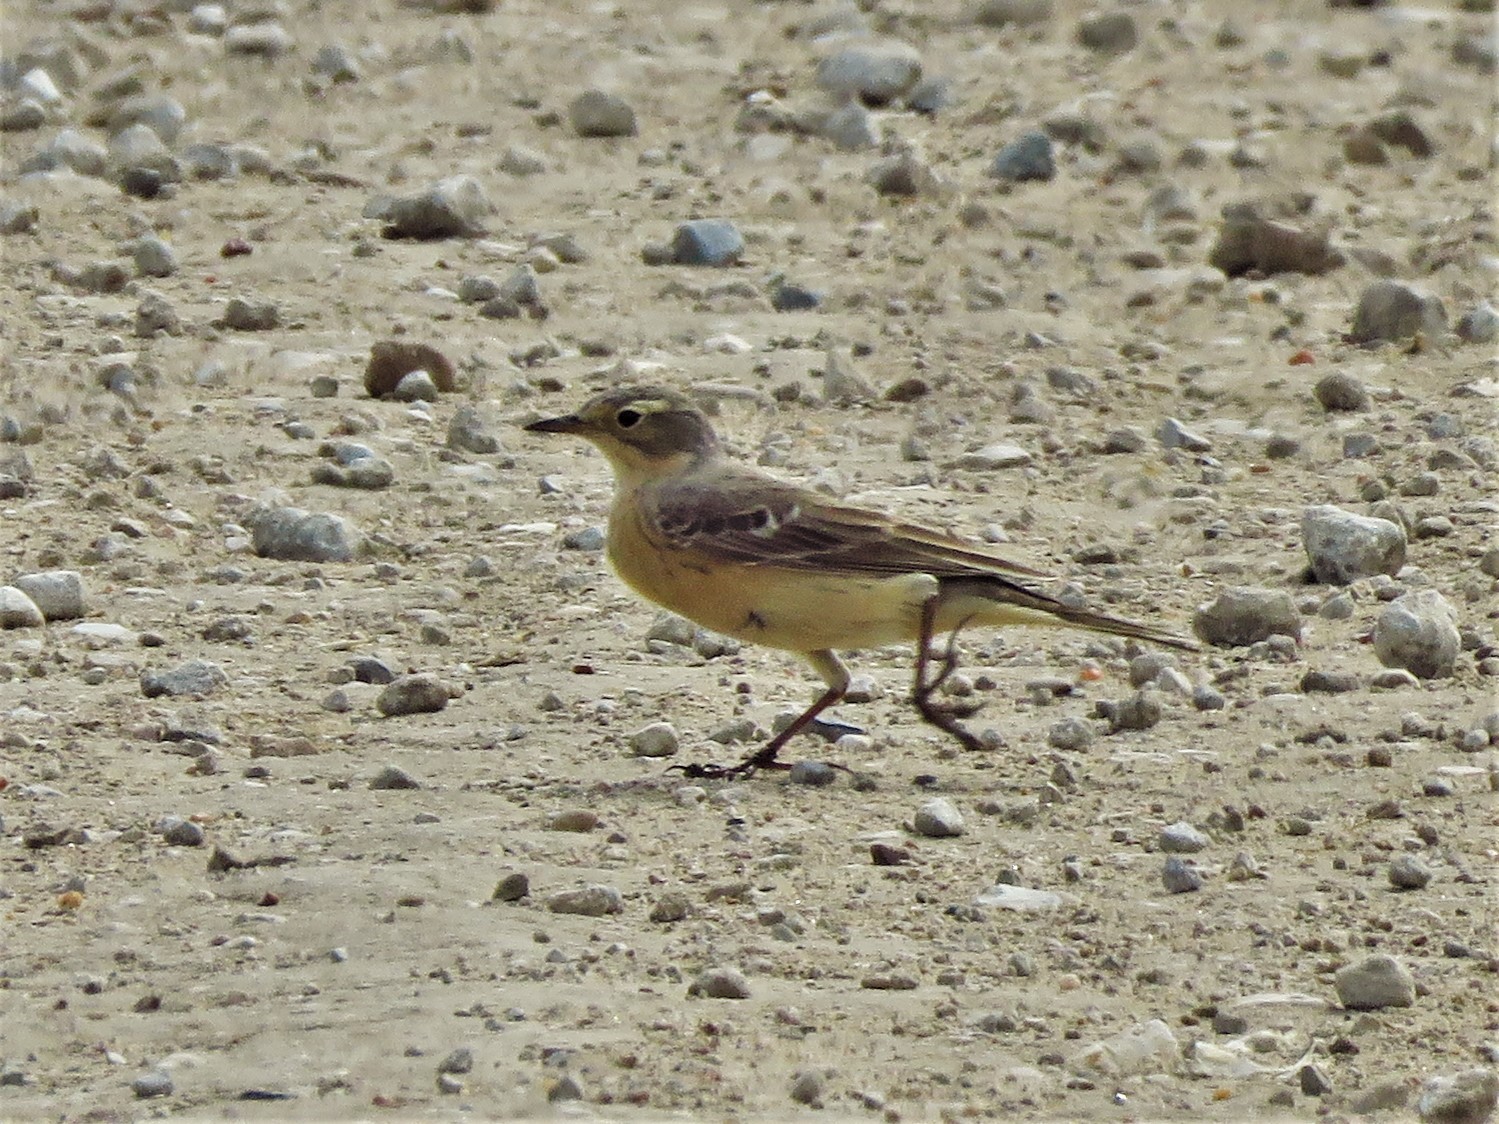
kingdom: Animalia
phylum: Chordata
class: Aves
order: Passeriformes
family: Motacillidae
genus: Anthus
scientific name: Anthus rubescens
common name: Buff-bellied pipit
